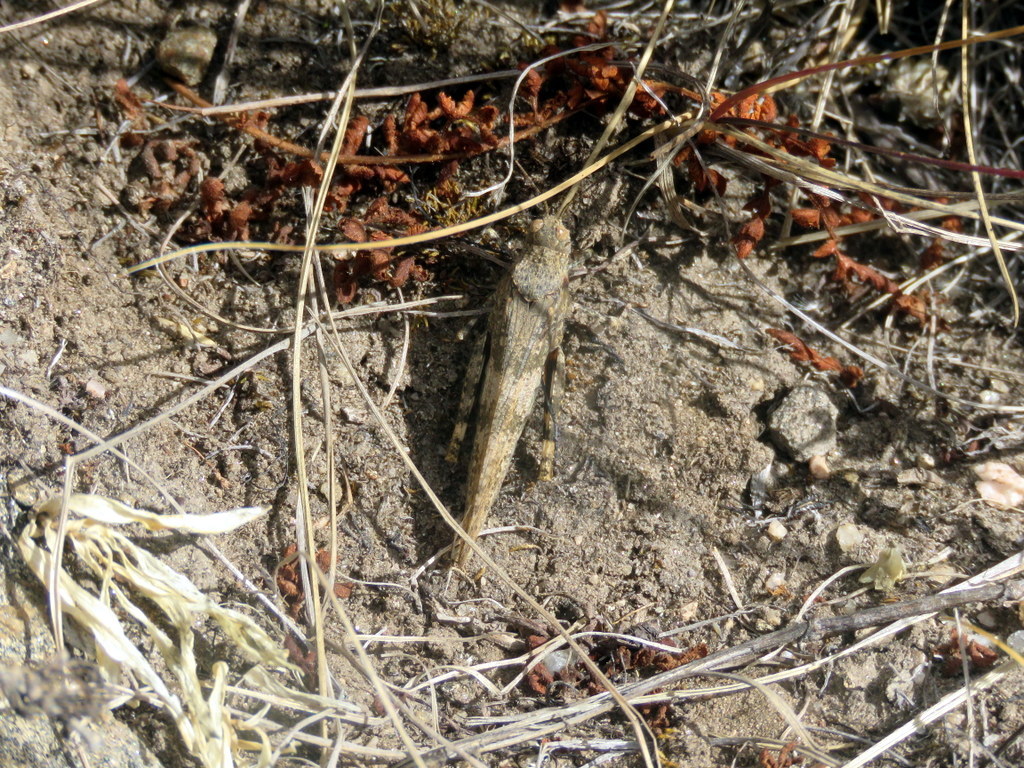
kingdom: Animalia
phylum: Arthropoda
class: Insecta
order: Orthoptera
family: Acrididae
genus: Trimerotropis
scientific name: Trimerotropis pallidipennis
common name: Pallid-winged grasshopper
